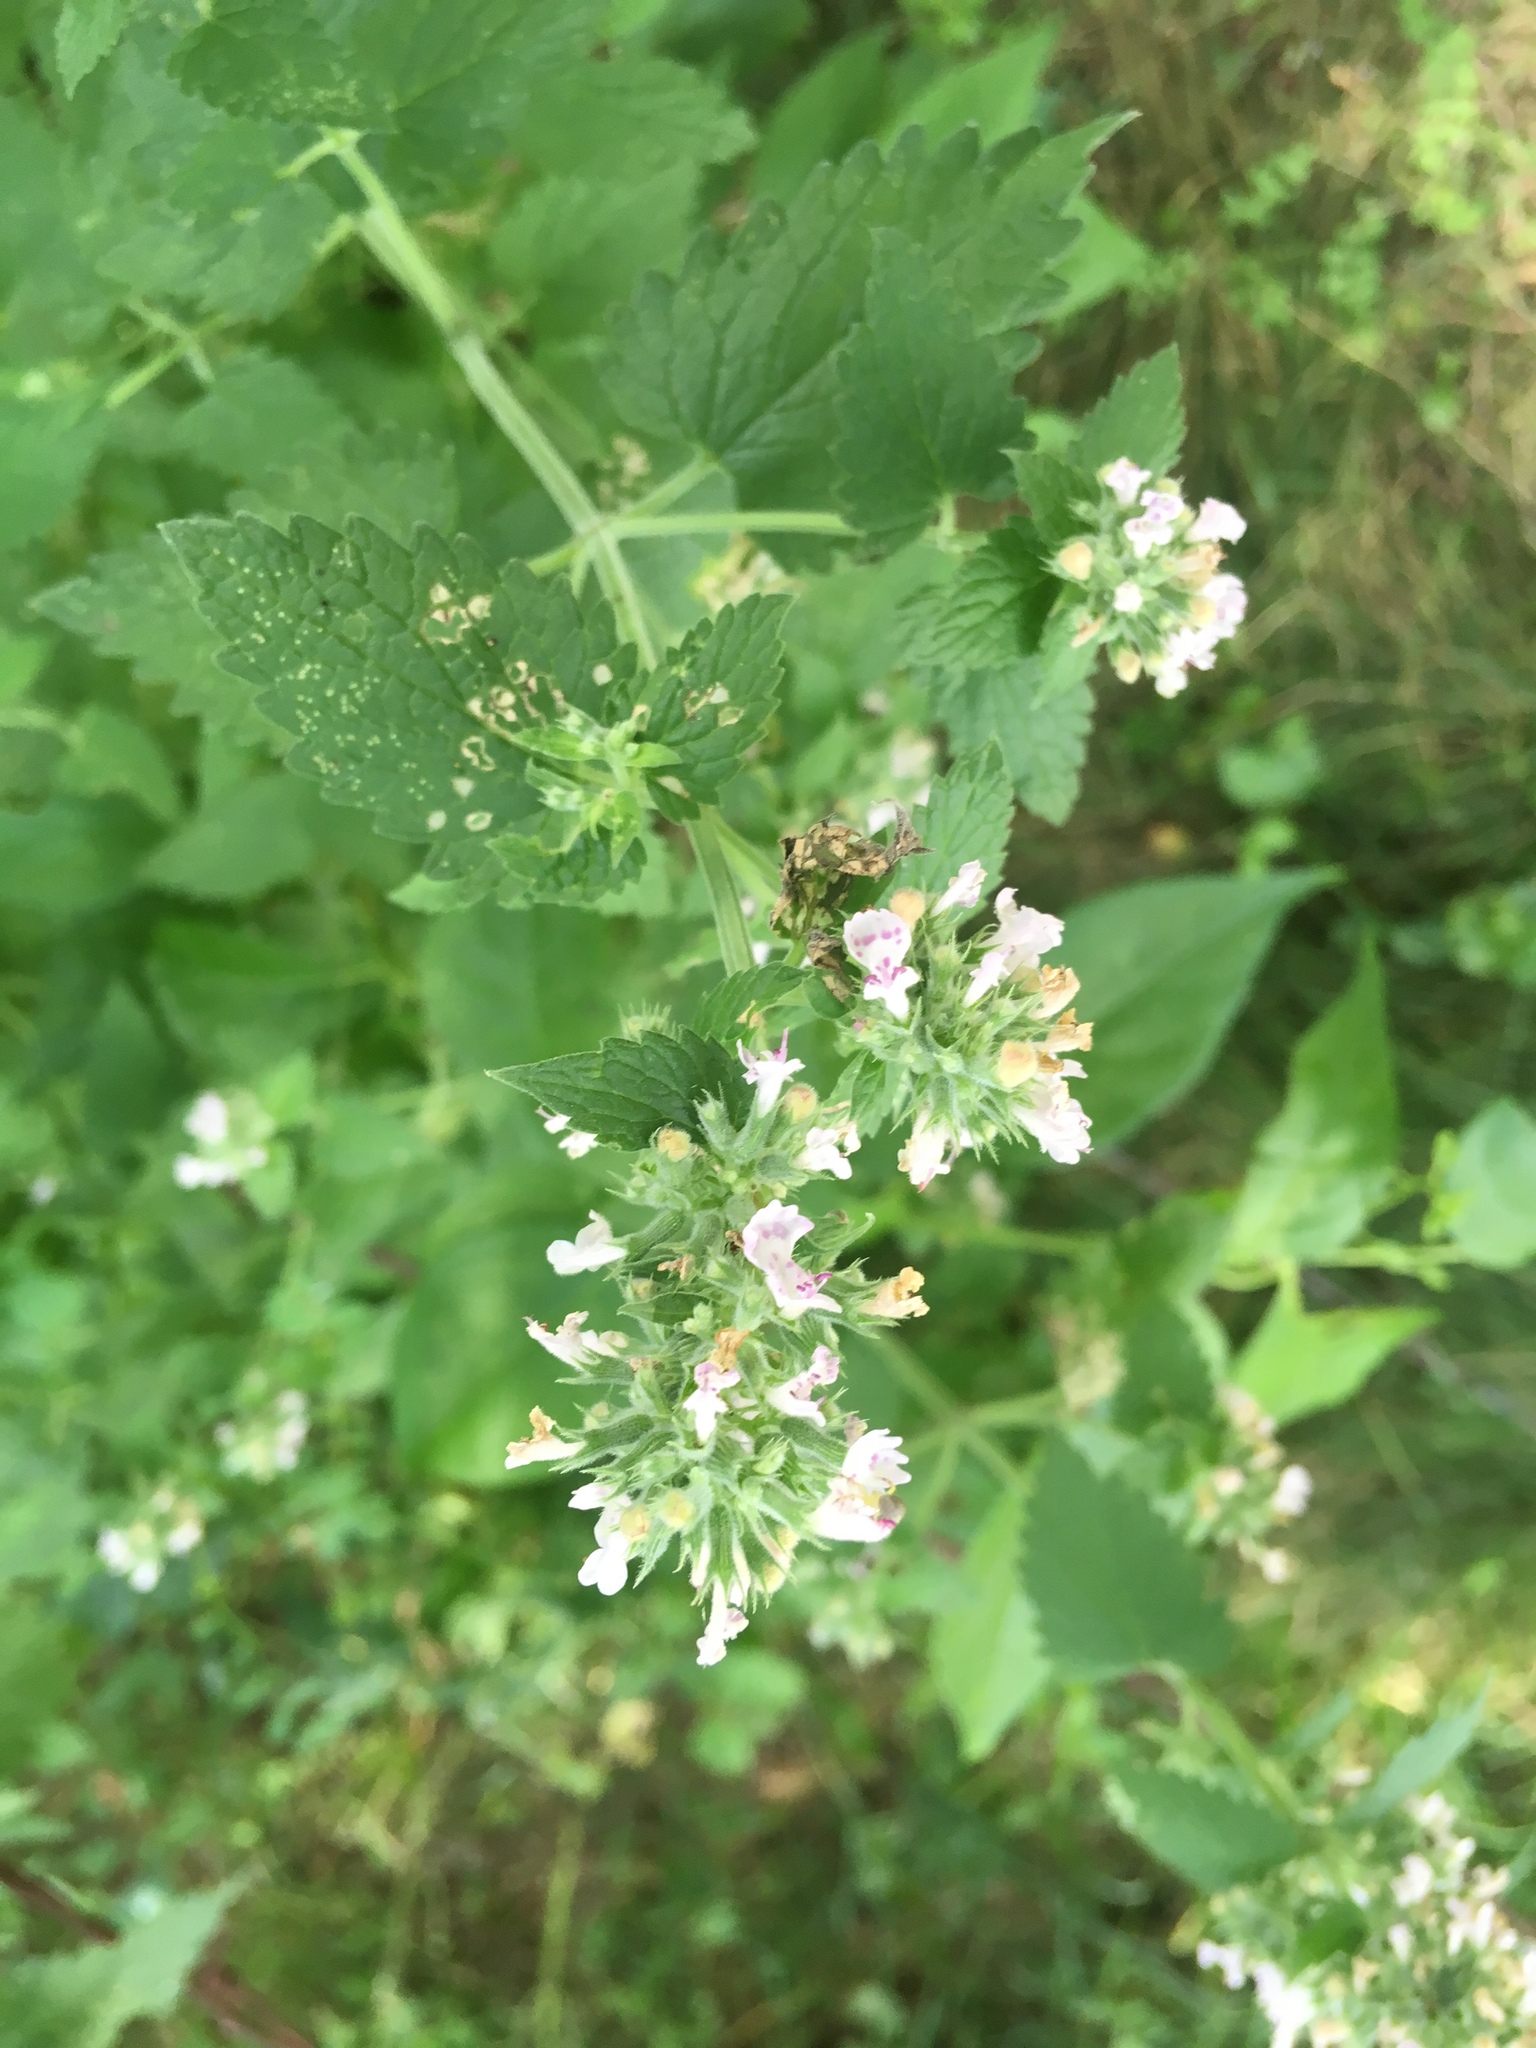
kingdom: Plantae
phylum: Tracheophyta
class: Magnoliopsida
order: Lamiales
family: Lamiaceae
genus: Nepeta
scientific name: Nepeta cataria
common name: Catnip
